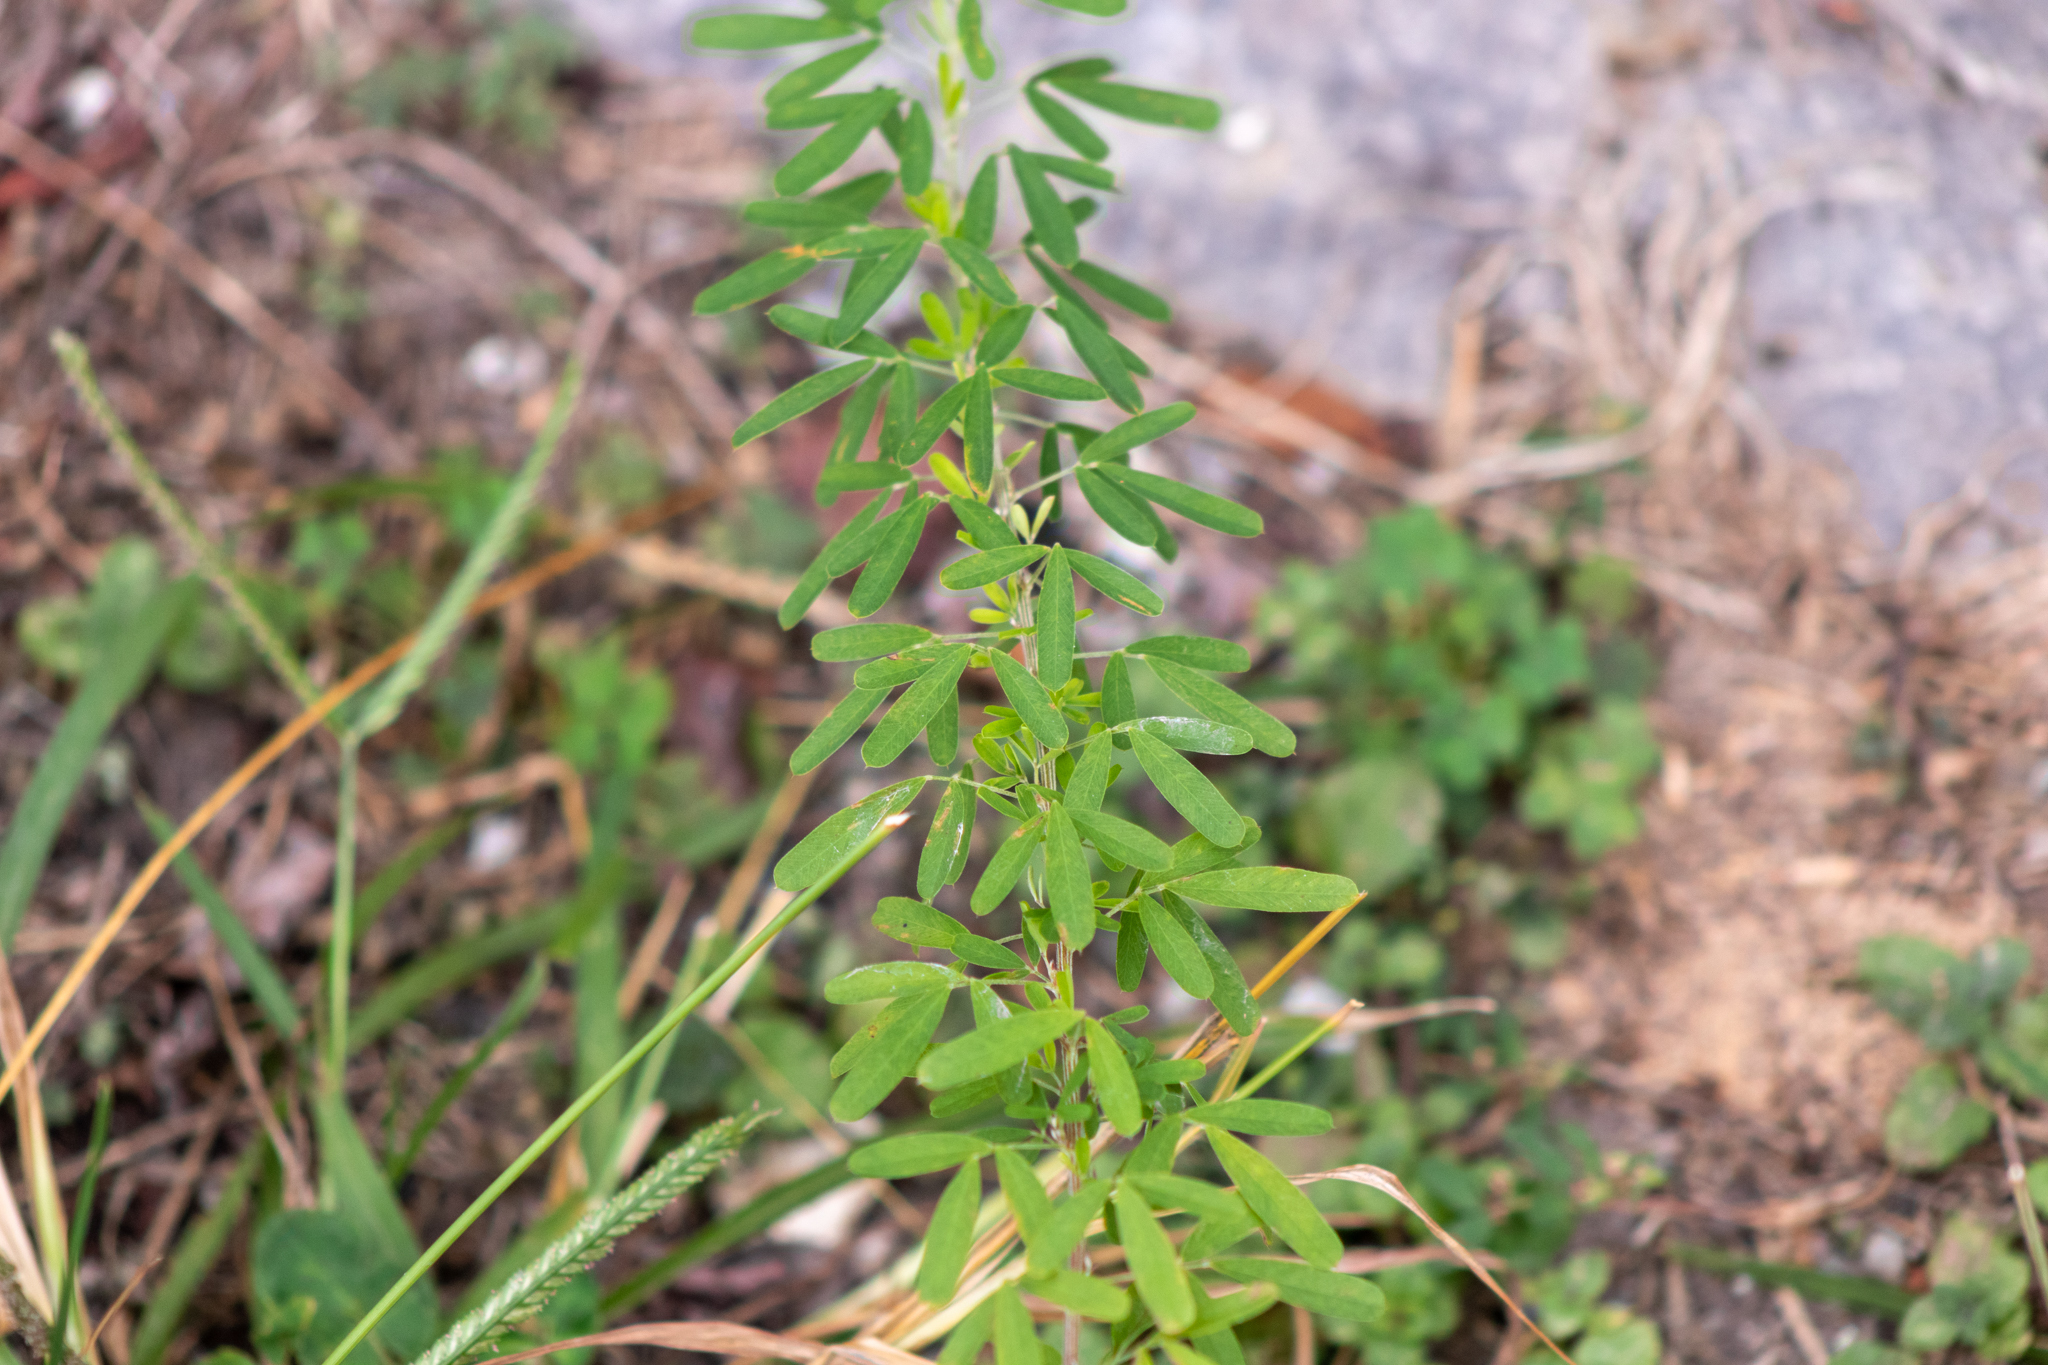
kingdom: Plantae
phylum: Tracheophyta
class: Magnoliopsida
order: Fabales
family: Fabaceae
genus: Lespedeza
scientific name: Lespedeza cuneata
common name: Chinese bush-clover
